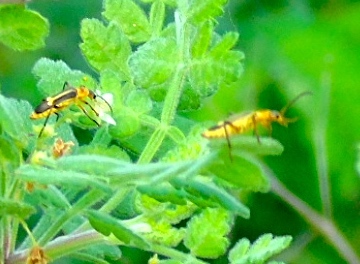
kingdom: Animalia
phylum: Arthropoda
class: Insecta
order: Coleoptera
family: Cantharidae
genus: Chauliognathus
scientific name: Chauliognathus
